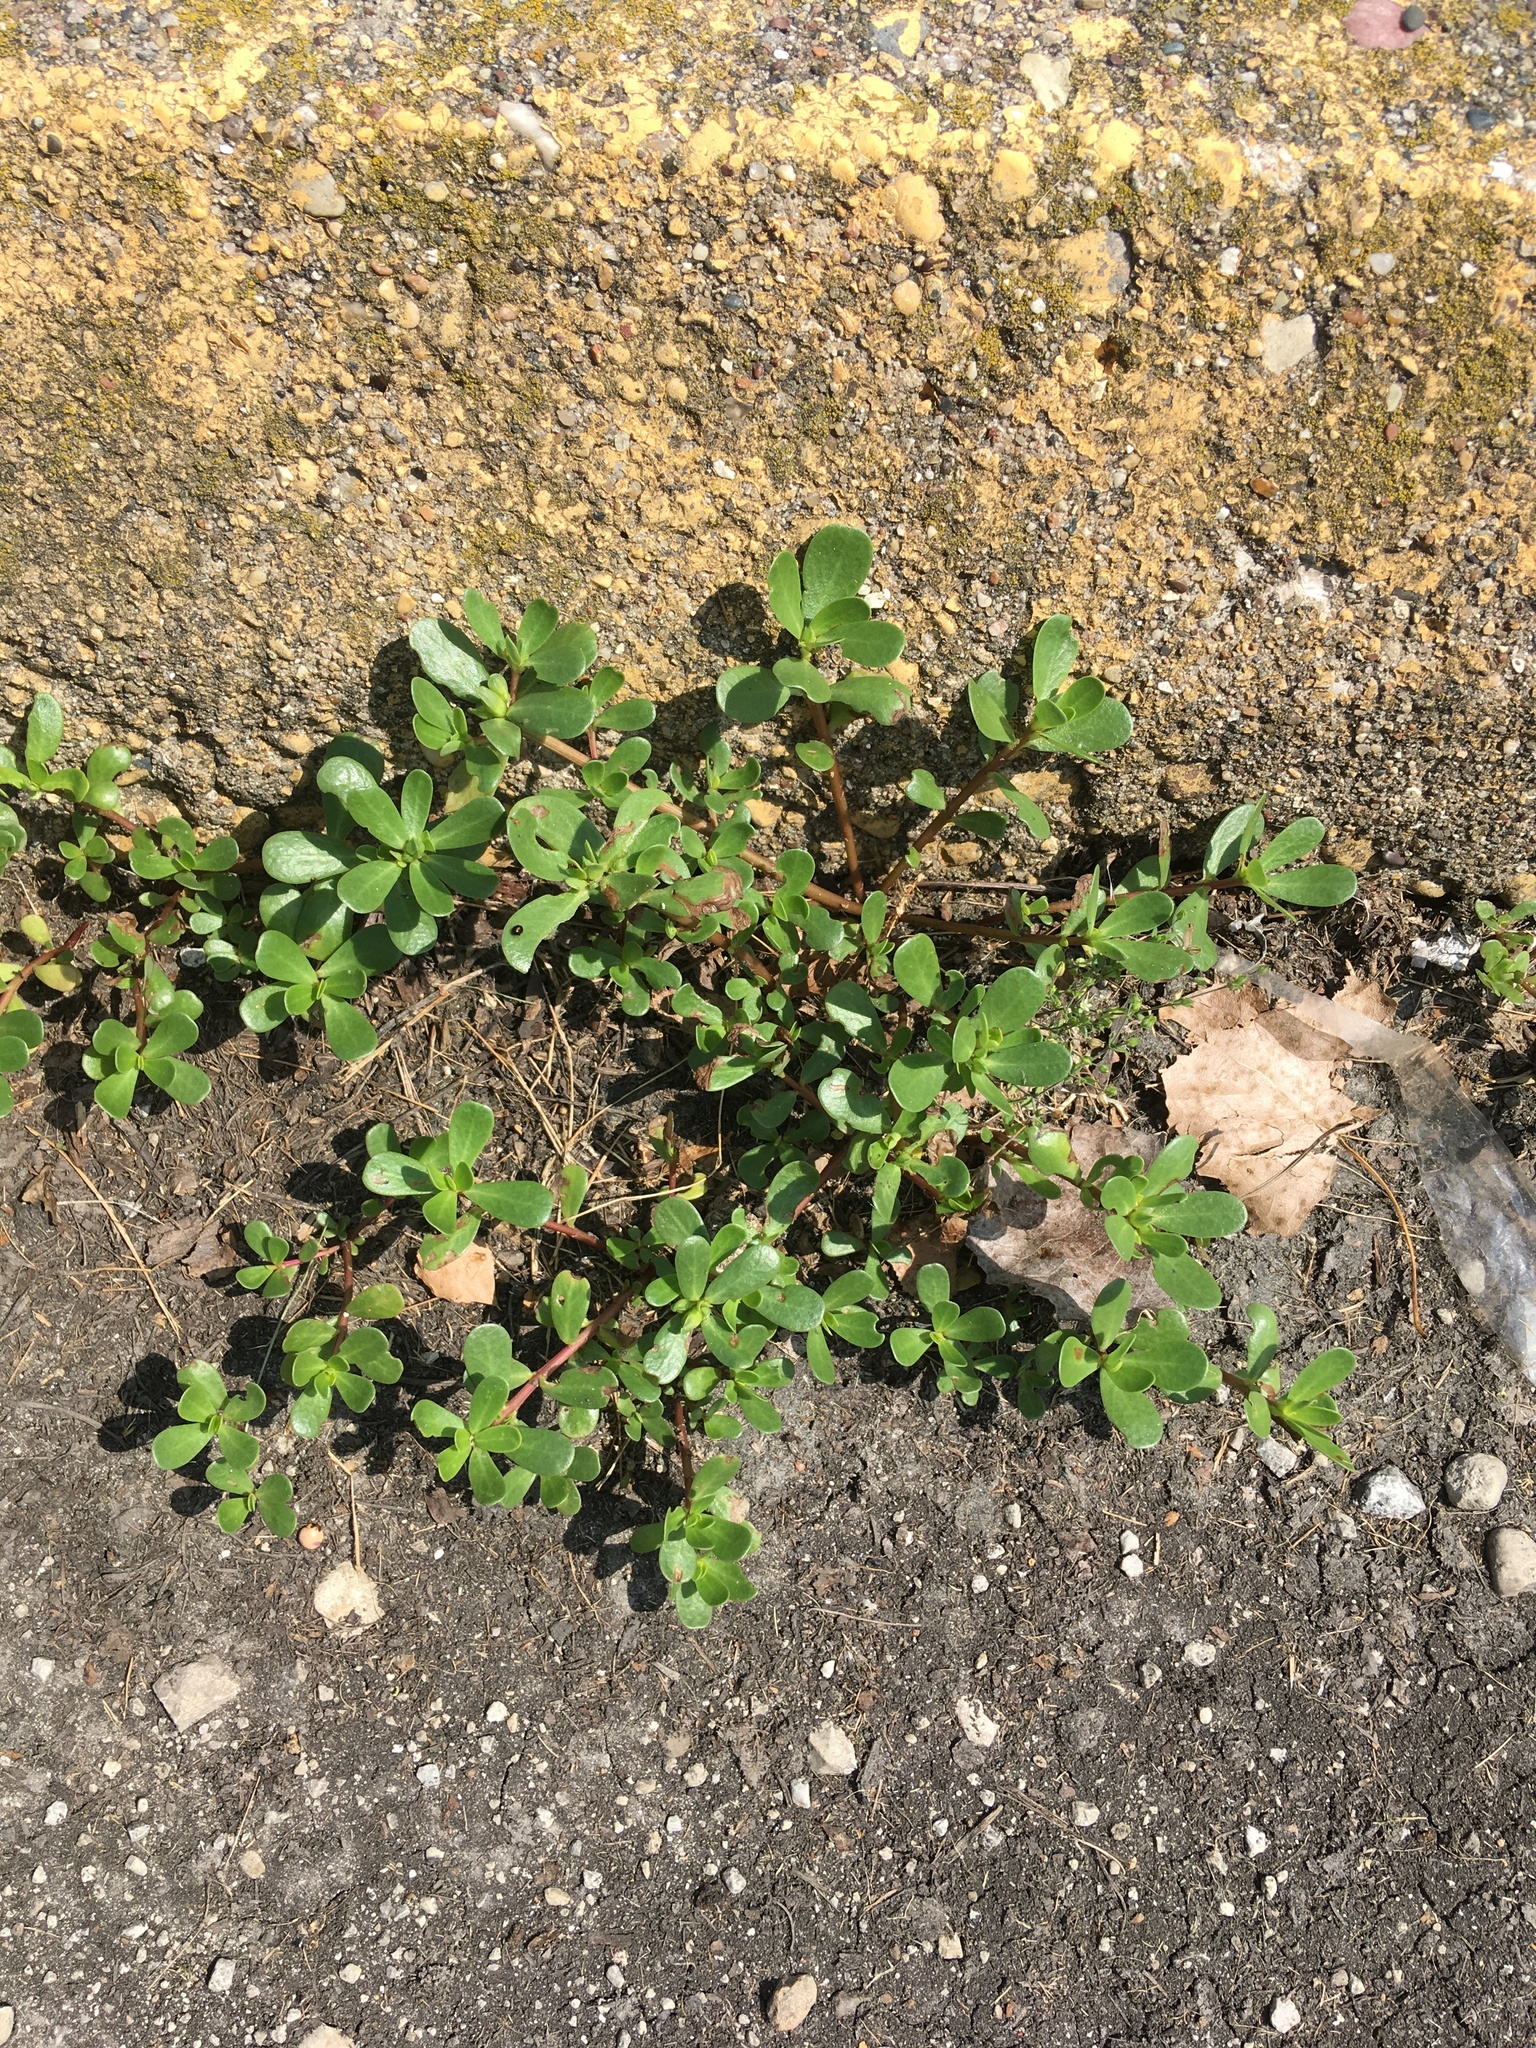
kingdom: Plantae
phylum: Tracheophyta
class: Magnoliopsida
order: Caryophyllales
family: Portulacaceae
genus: Portulaca
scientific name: Portulaca oleracea
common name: Common purslane
